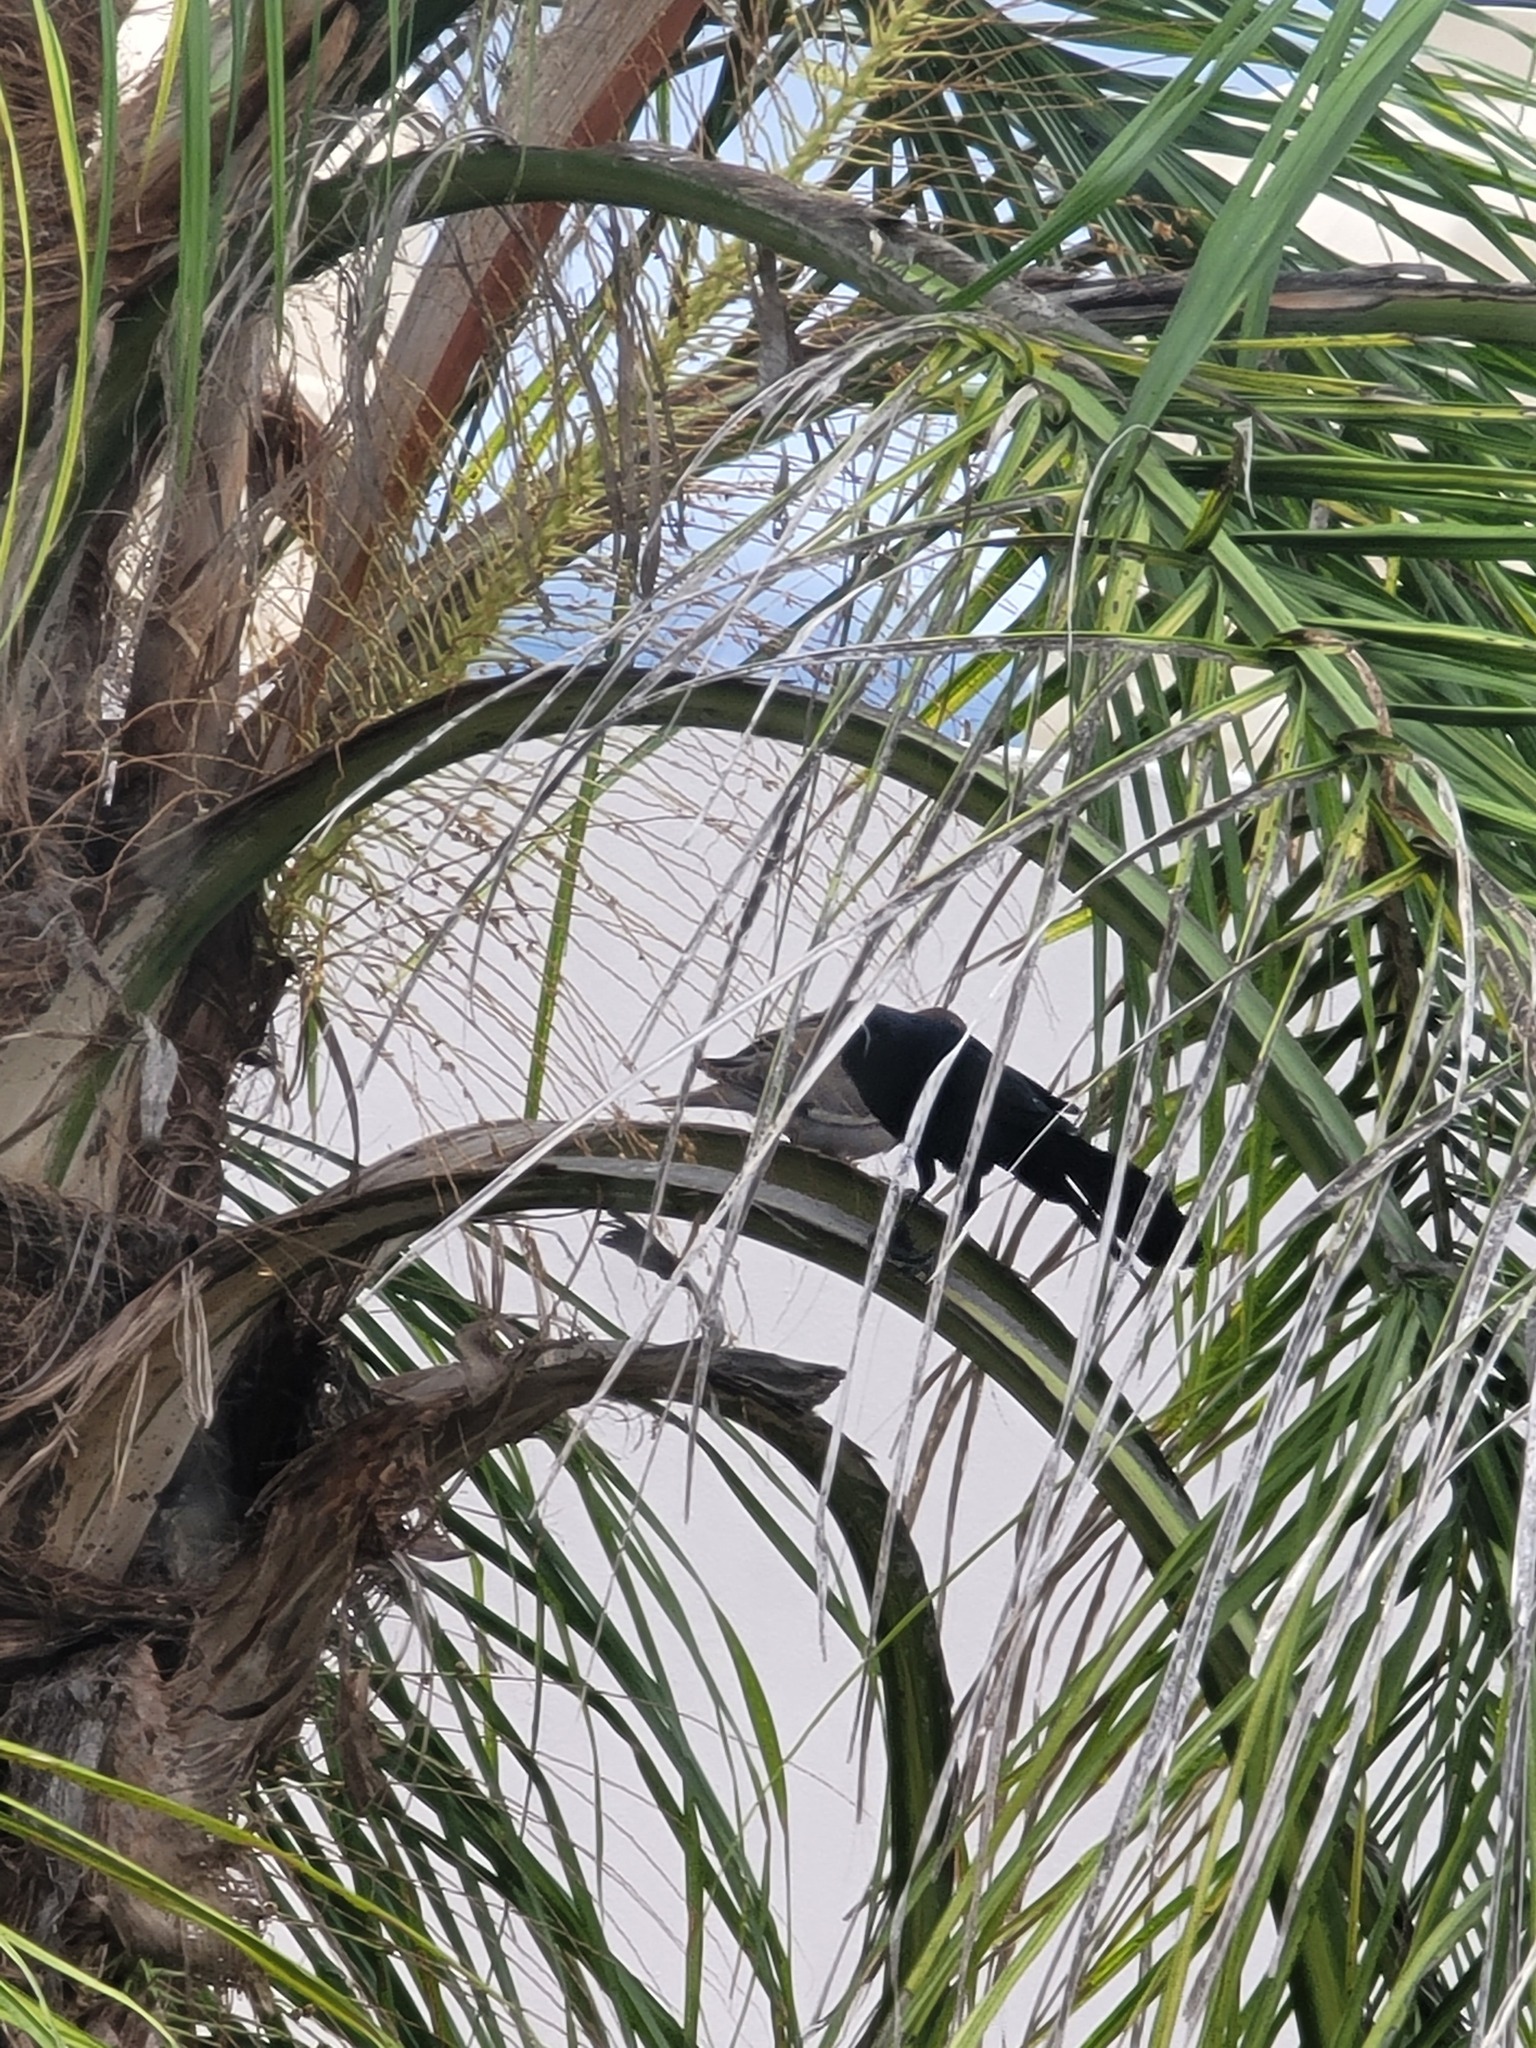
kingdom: Animalia
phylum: Chordata
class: Aves
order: Passeriformes
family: Icteridae
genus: Quiscalus
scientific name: Quiscalus mexicanus
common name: Great-tailed grackle
